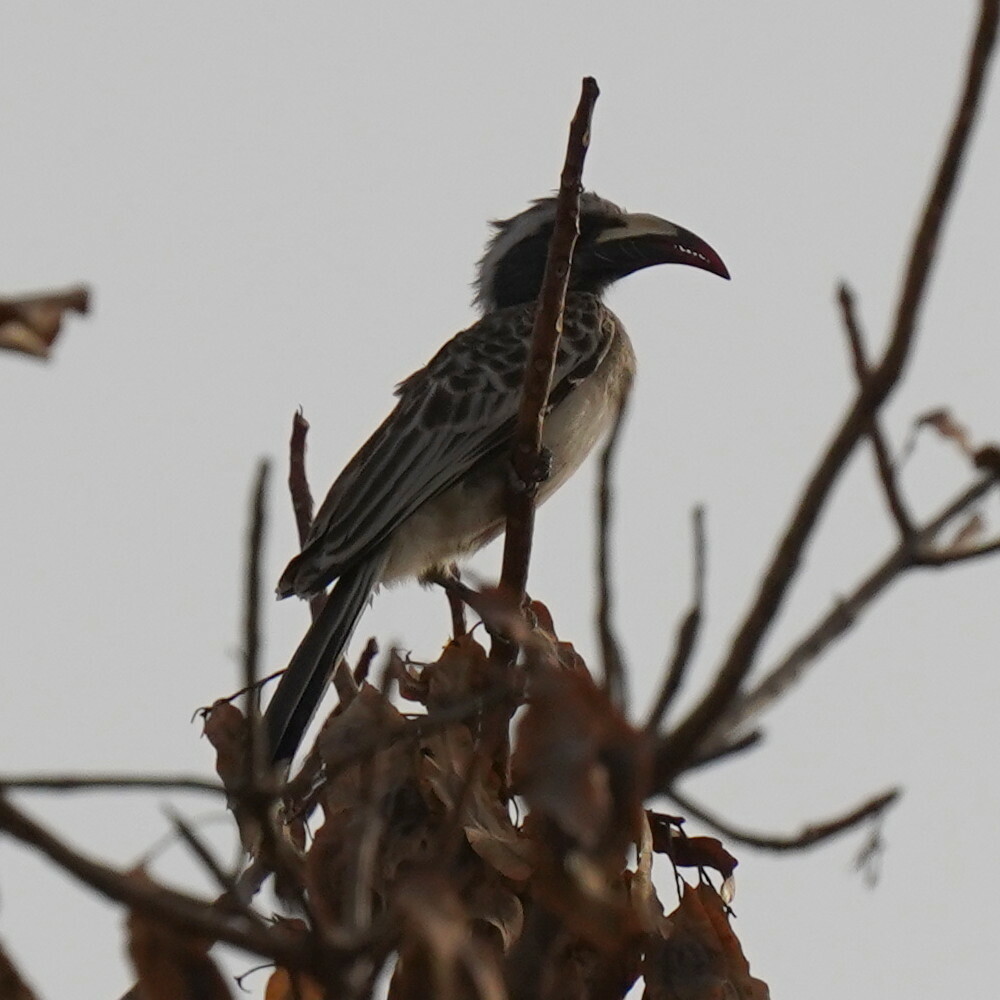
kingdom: Animalia
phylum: Chordata
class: Aves
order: Bucerotiformes
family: Bucerotidae
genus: Lophoceros
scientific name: Lophoceros nasutus
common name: African grey hornbill
